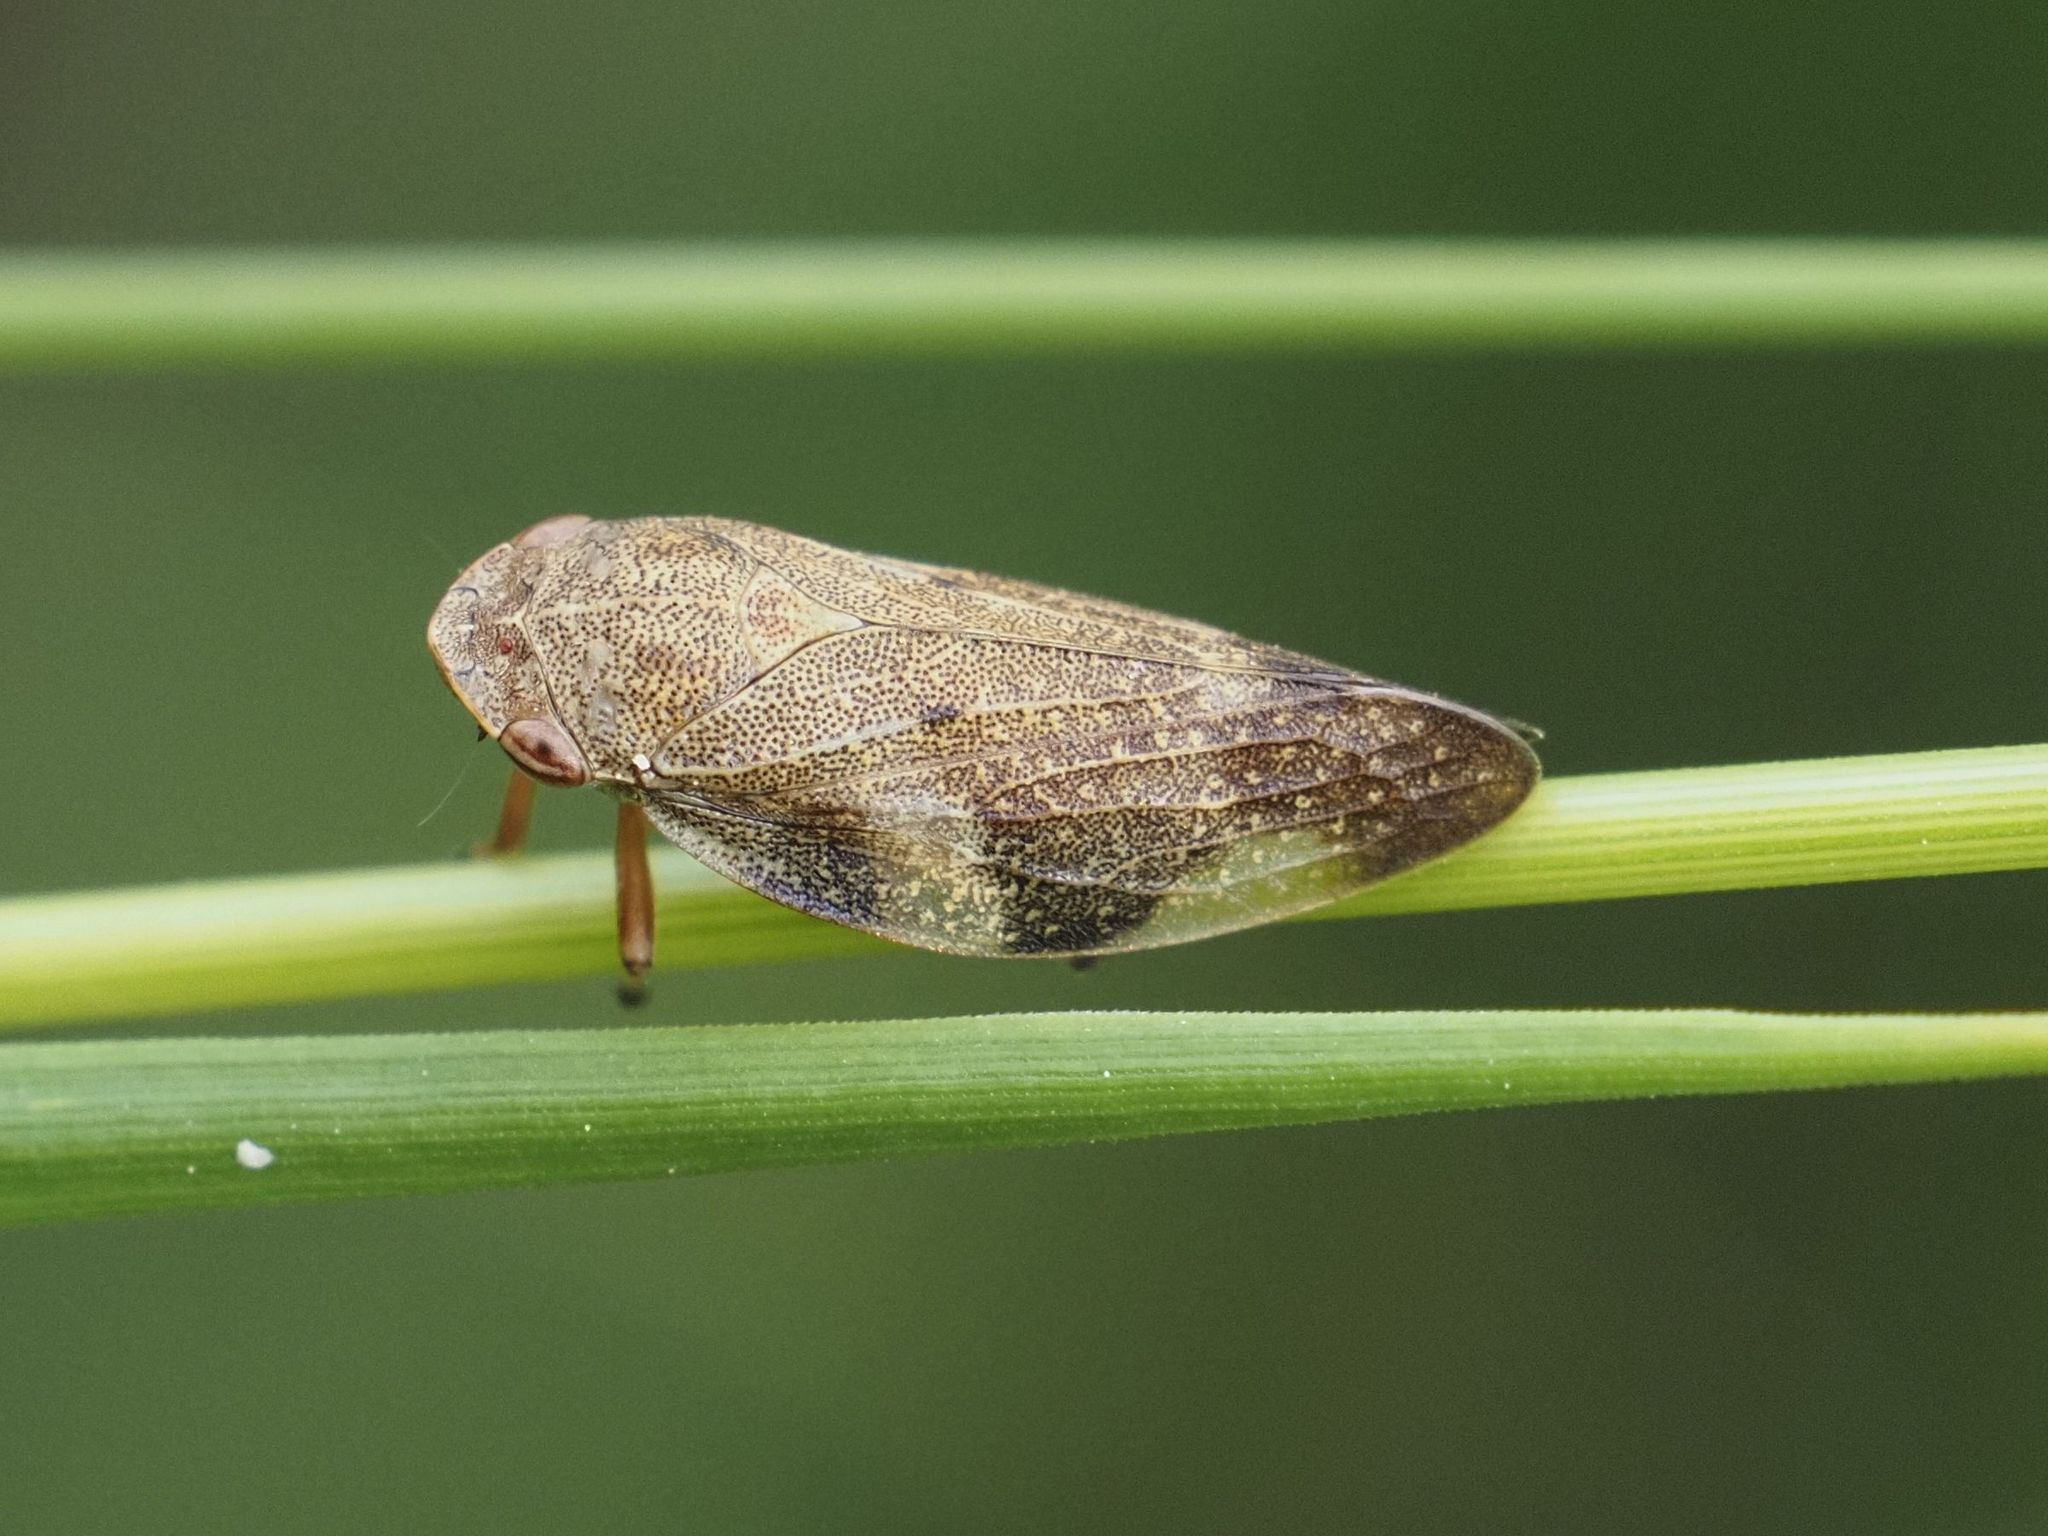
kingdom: Animalia
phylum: Arthropoda
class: Insecta
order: Hemiptera
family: Aphrophoridae
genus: Aphrophora
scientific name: Aphrophora alni
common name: European alder spittlebug
